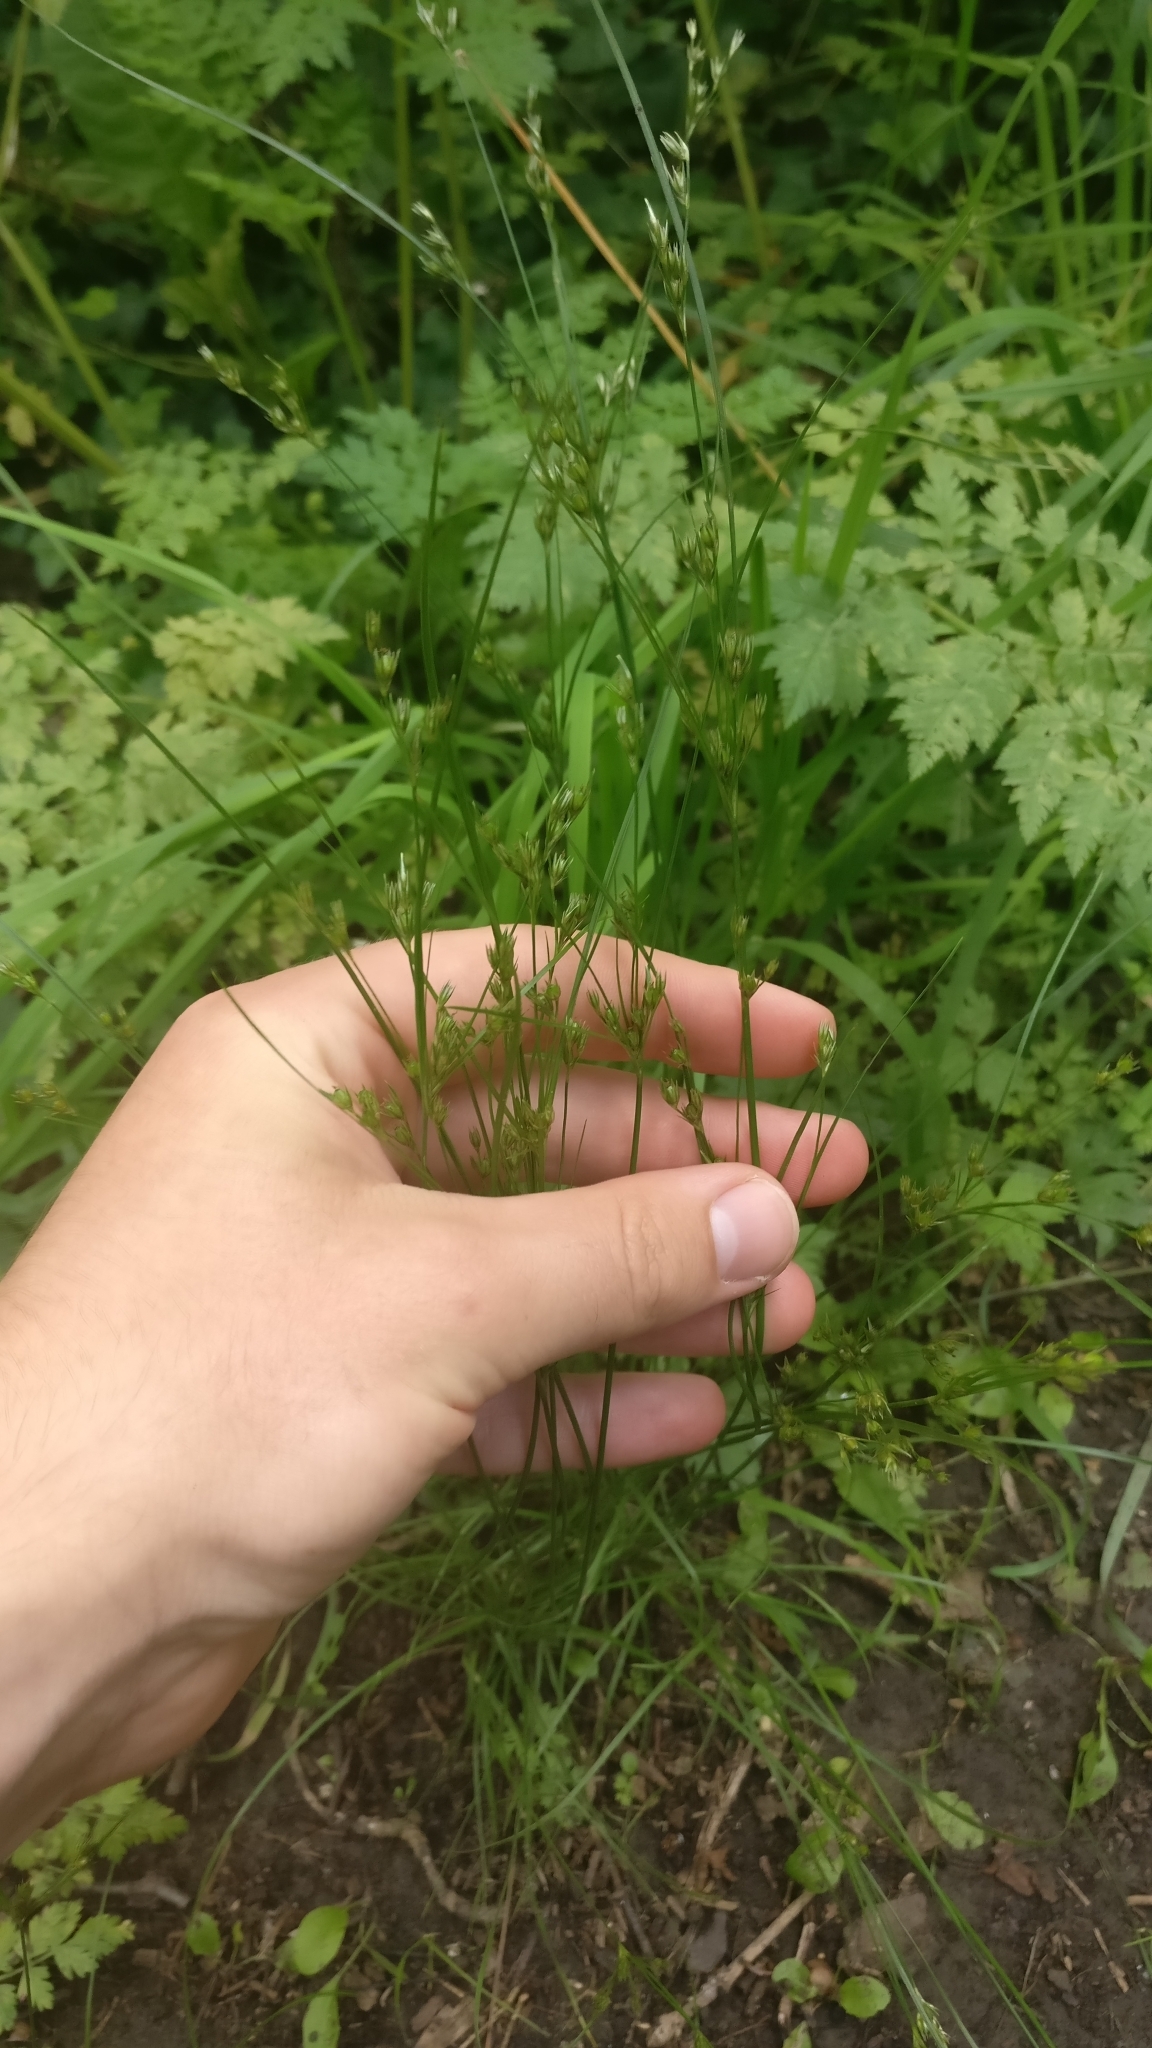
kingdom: Plantae
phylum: Tracheophyta
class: Liliopsida
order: Poales
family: Juncaceae
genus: Juncus
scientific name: Juncus tenuis
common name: Slender rush
